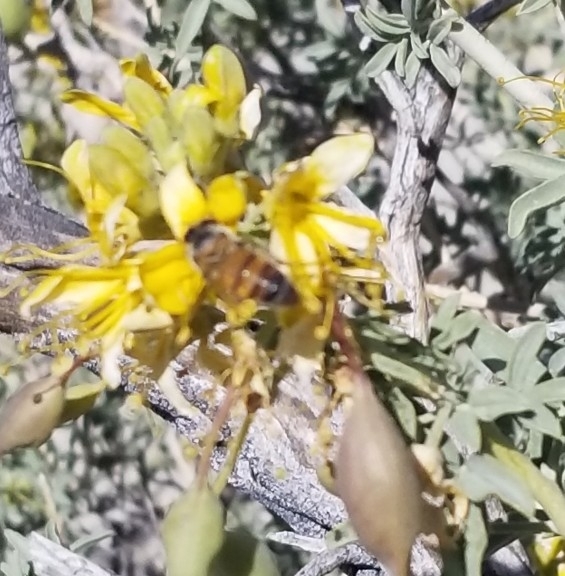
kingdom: Animalia
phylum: Arthropoda
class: Insecta
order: Hymenoptera
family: Apidae
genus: Apis
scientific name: Apis mellifera
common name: Honey bee
